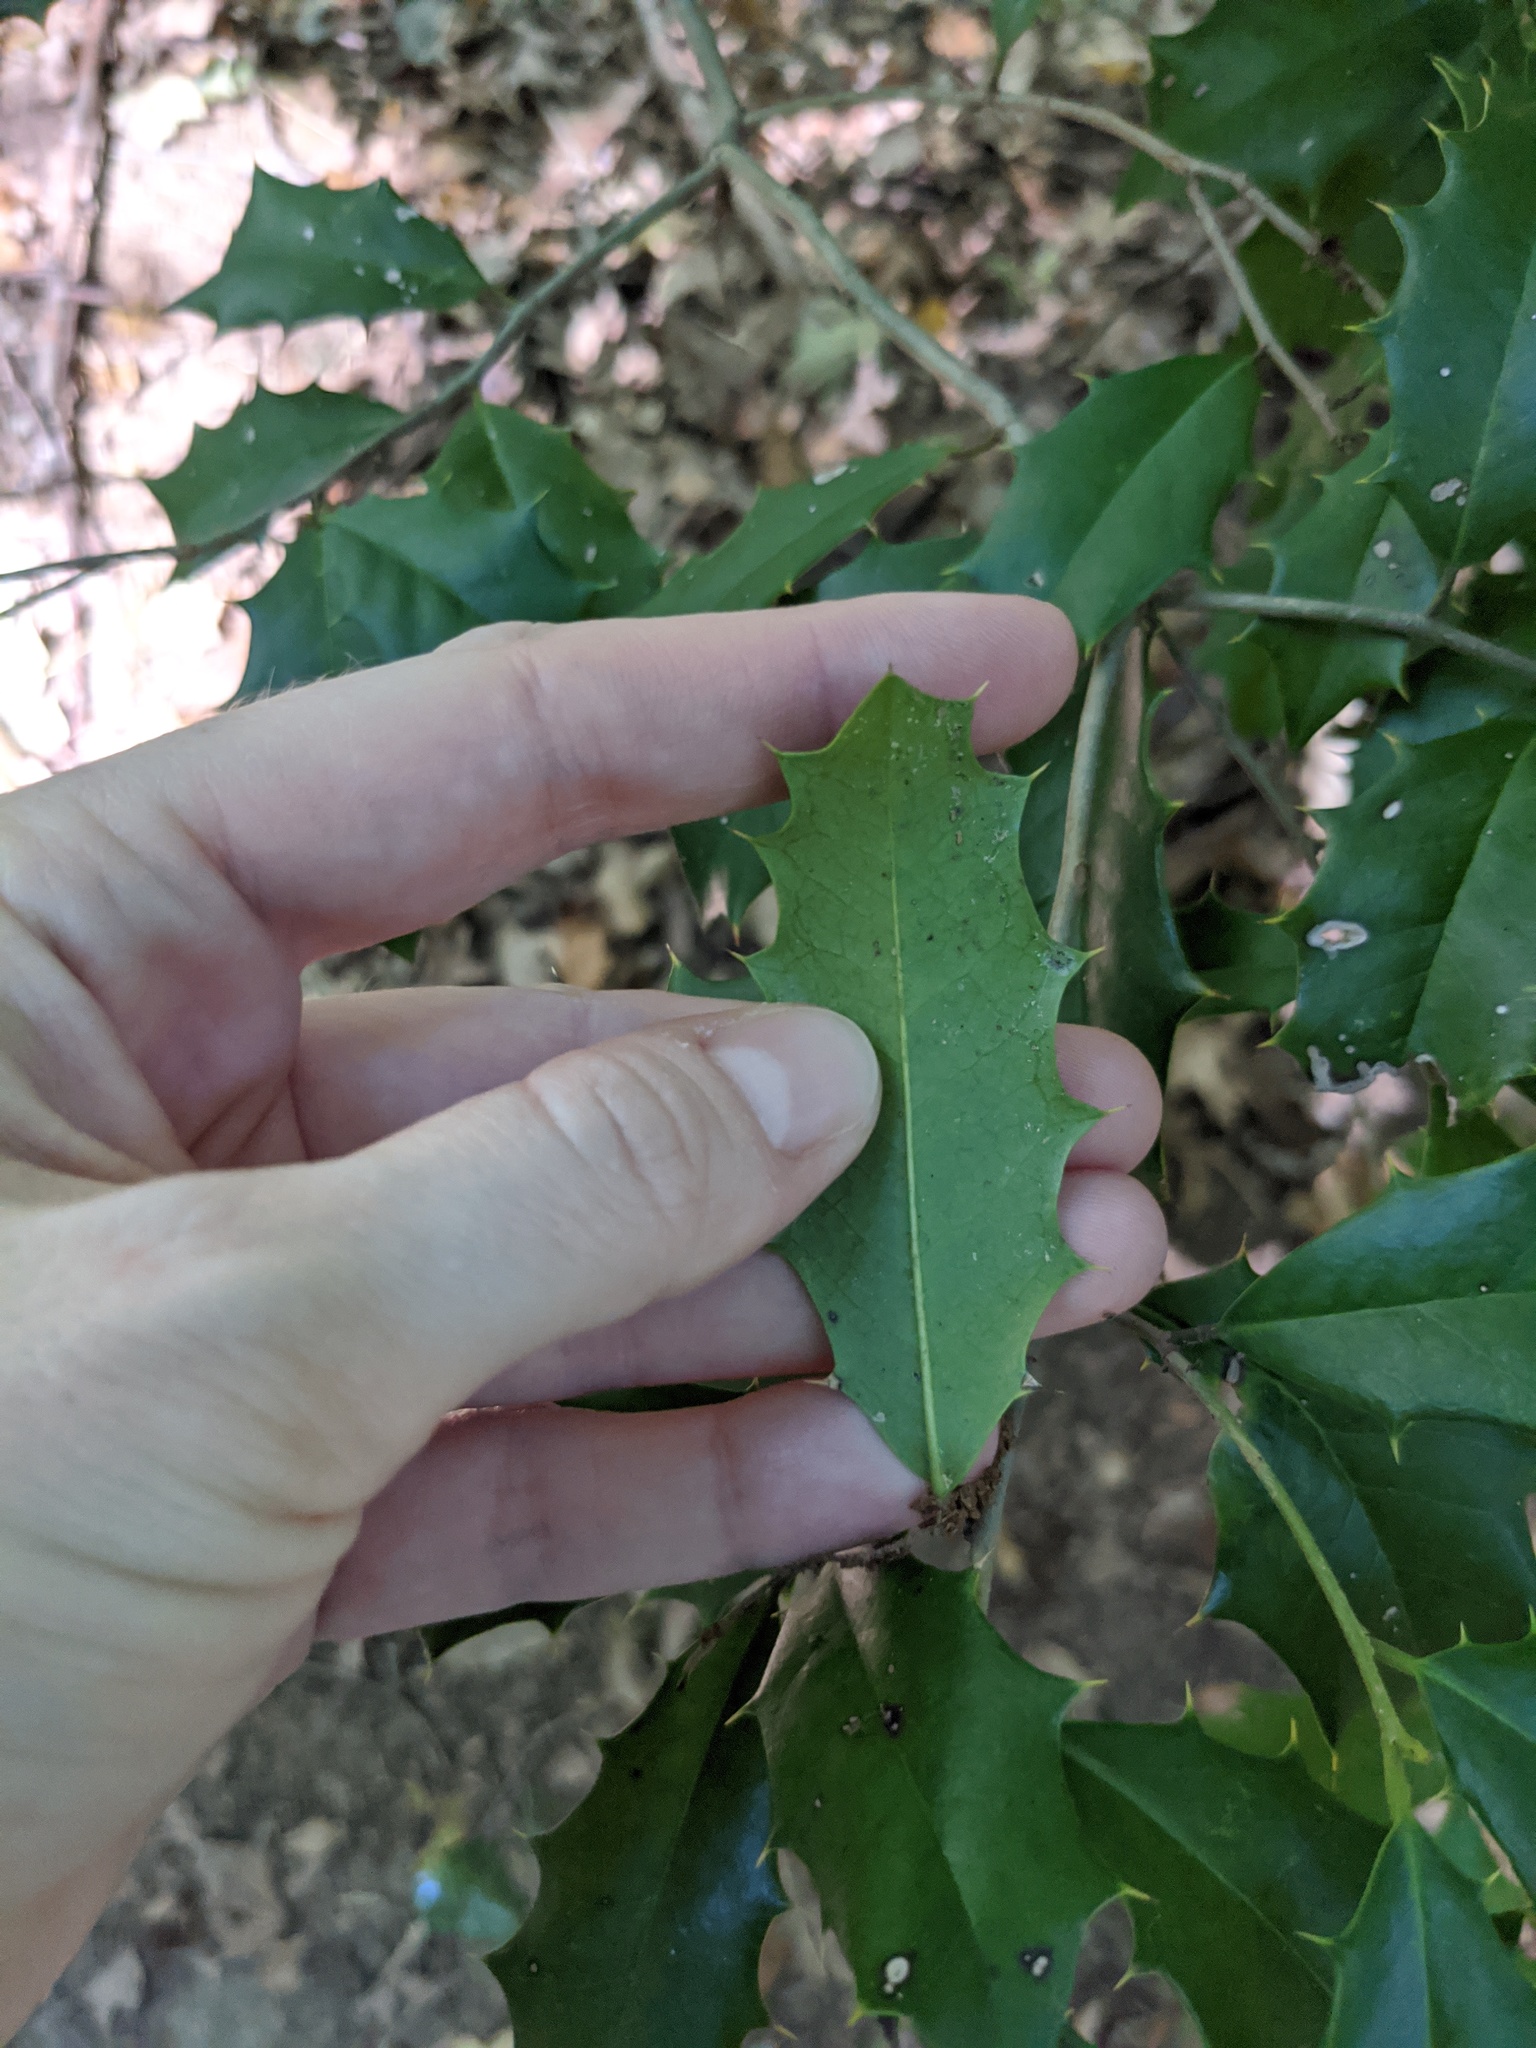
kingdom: Plantae
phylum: Tracheophyta
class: Magnoliopsida
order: Aquifoliales
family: Aquifoliaceae
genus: Ilex
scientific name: Ilex opaca
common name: American holly
